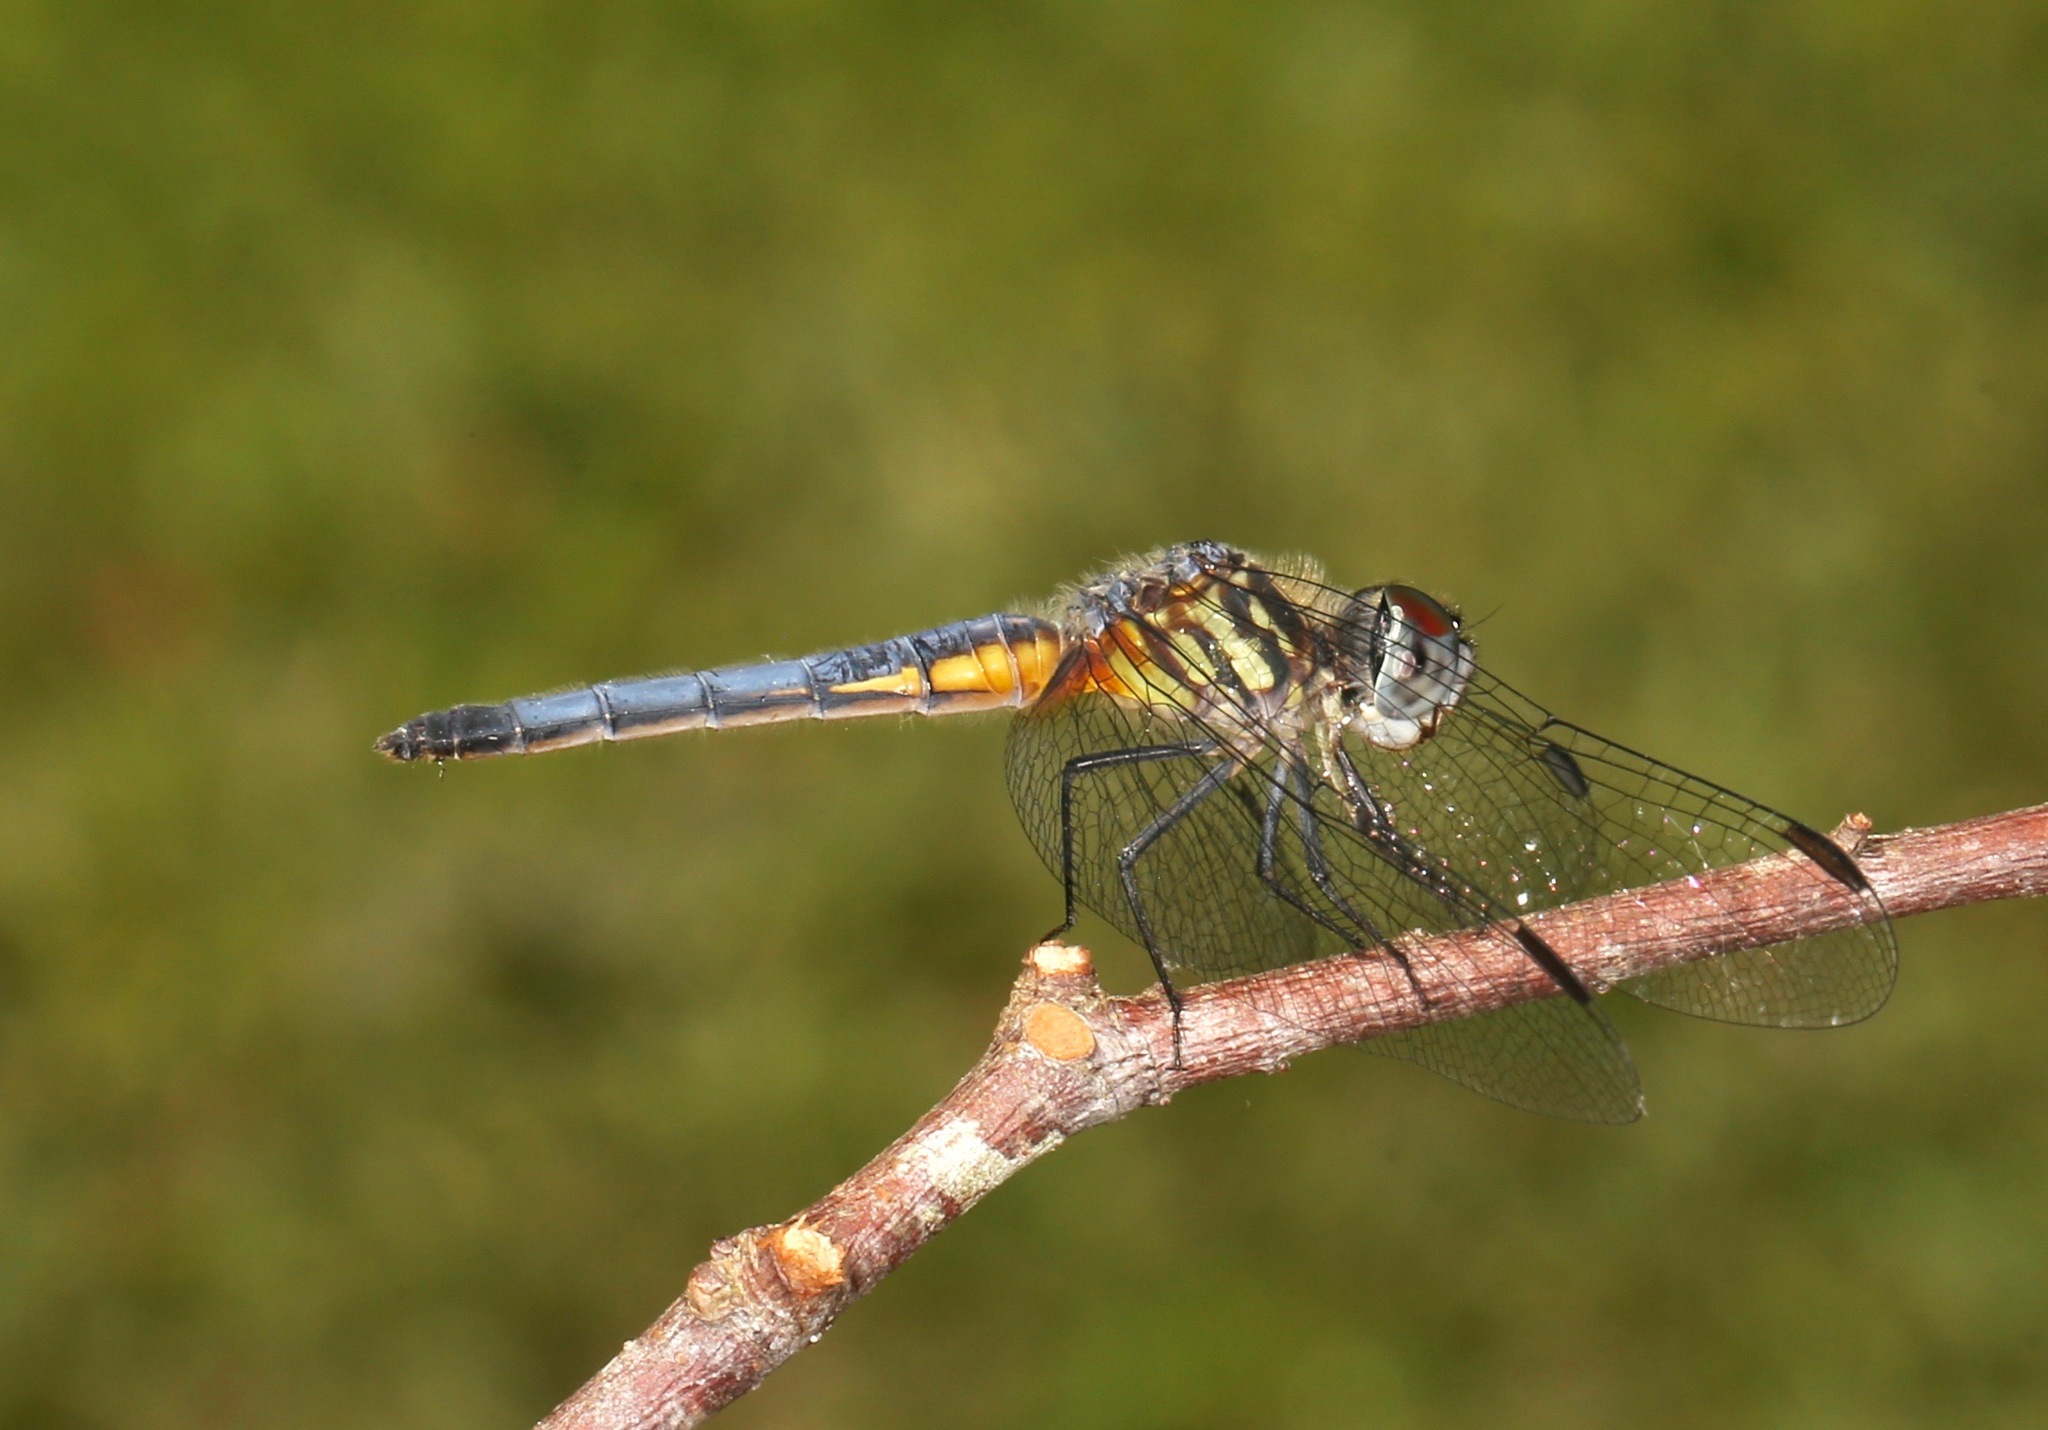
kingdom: Animalia
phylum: Arthropoda
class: Insecta
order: Odonata
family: Libellulidae
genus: Pachydiplax
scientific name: Pachydiplax longipennis
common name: Blue dasher
